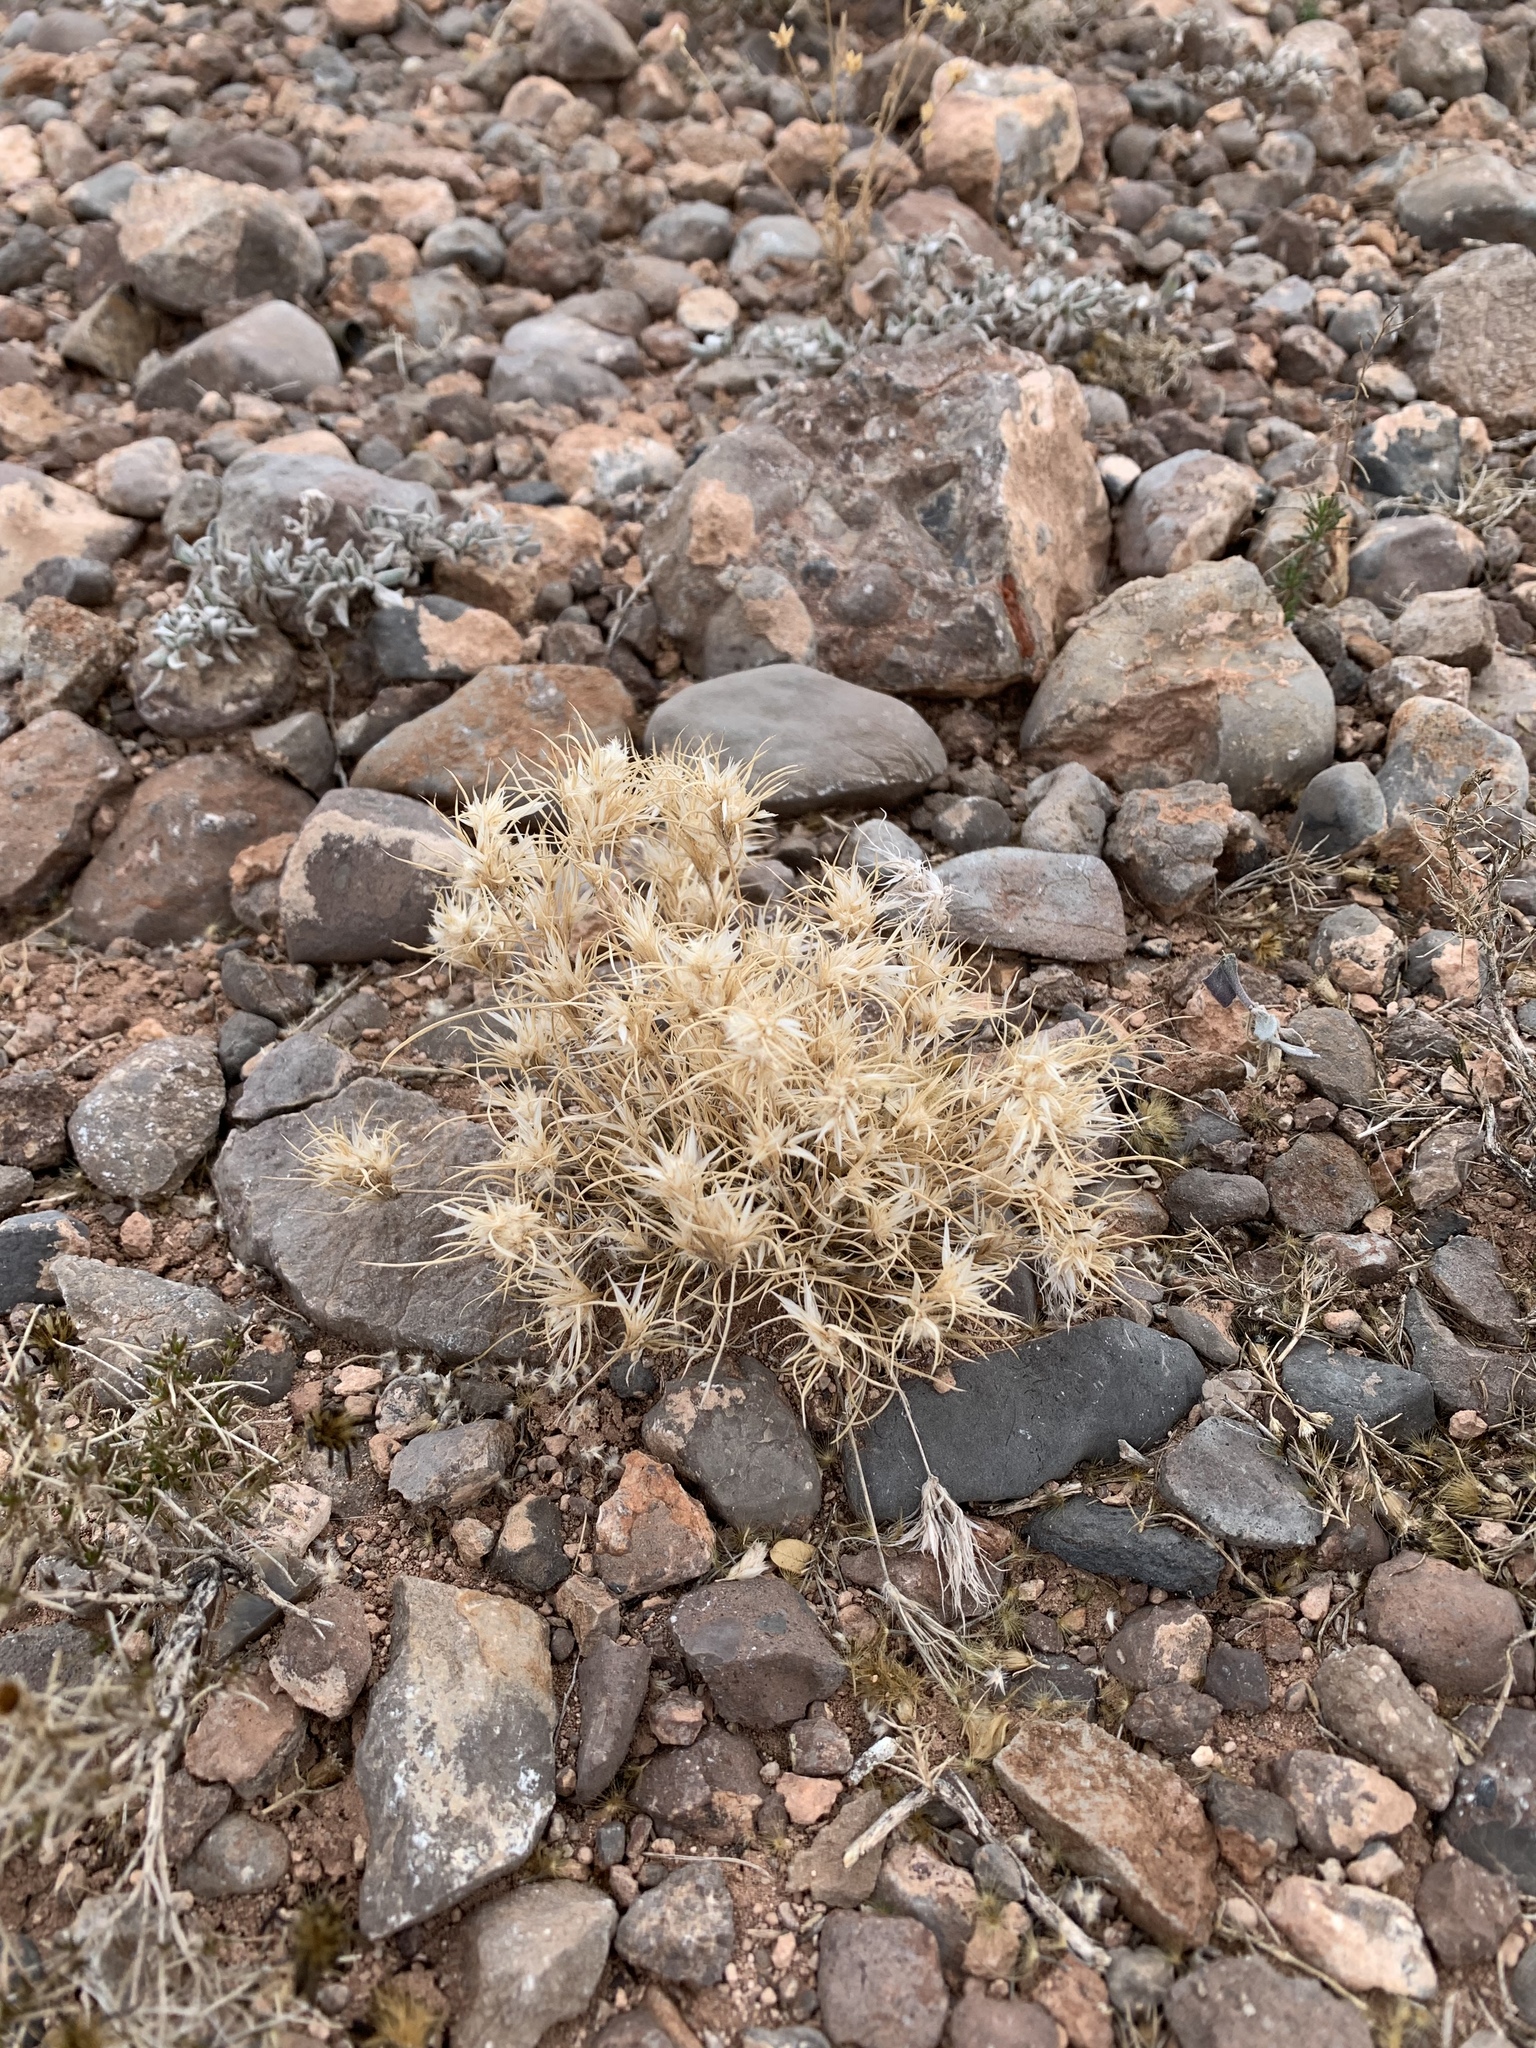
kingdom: Plantae
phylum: Tracheophyta
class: Liliopsida
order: Poales
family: Poaceae
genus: Dasyochloa
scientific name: Dasyochloa pulchella
